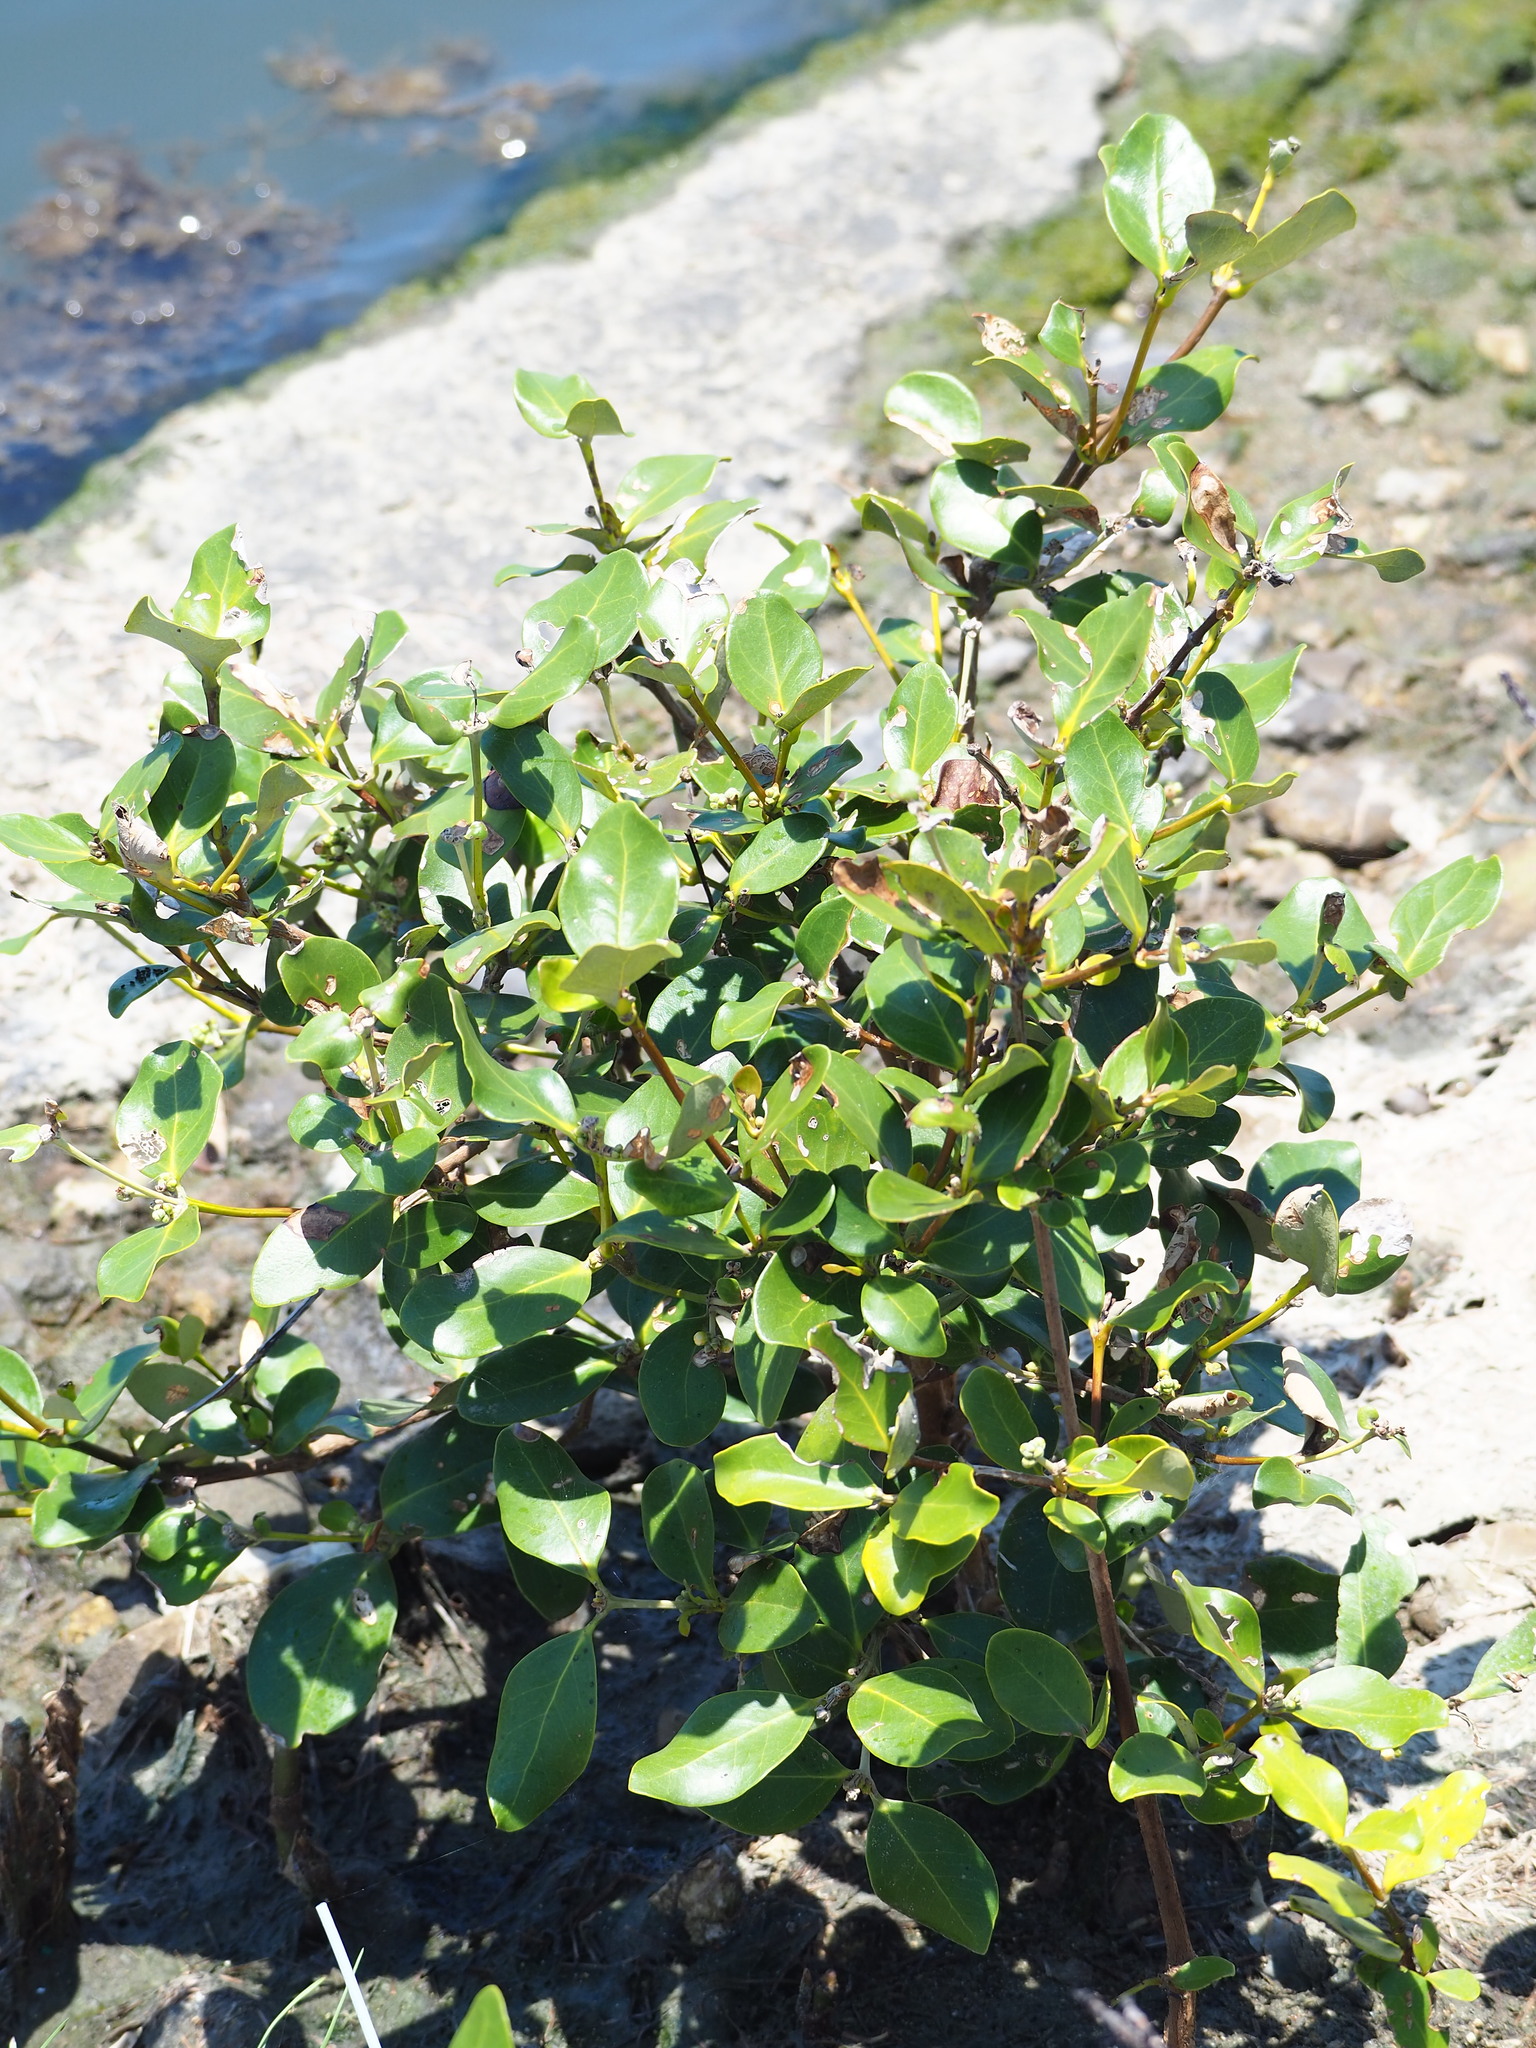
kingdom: Plantae
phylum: Tracheophyta
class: Magnoliopsida
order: Lamiales
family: Acanthaceae
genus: Avicennia
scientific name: Avicennia marina
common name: Gray mangrove
